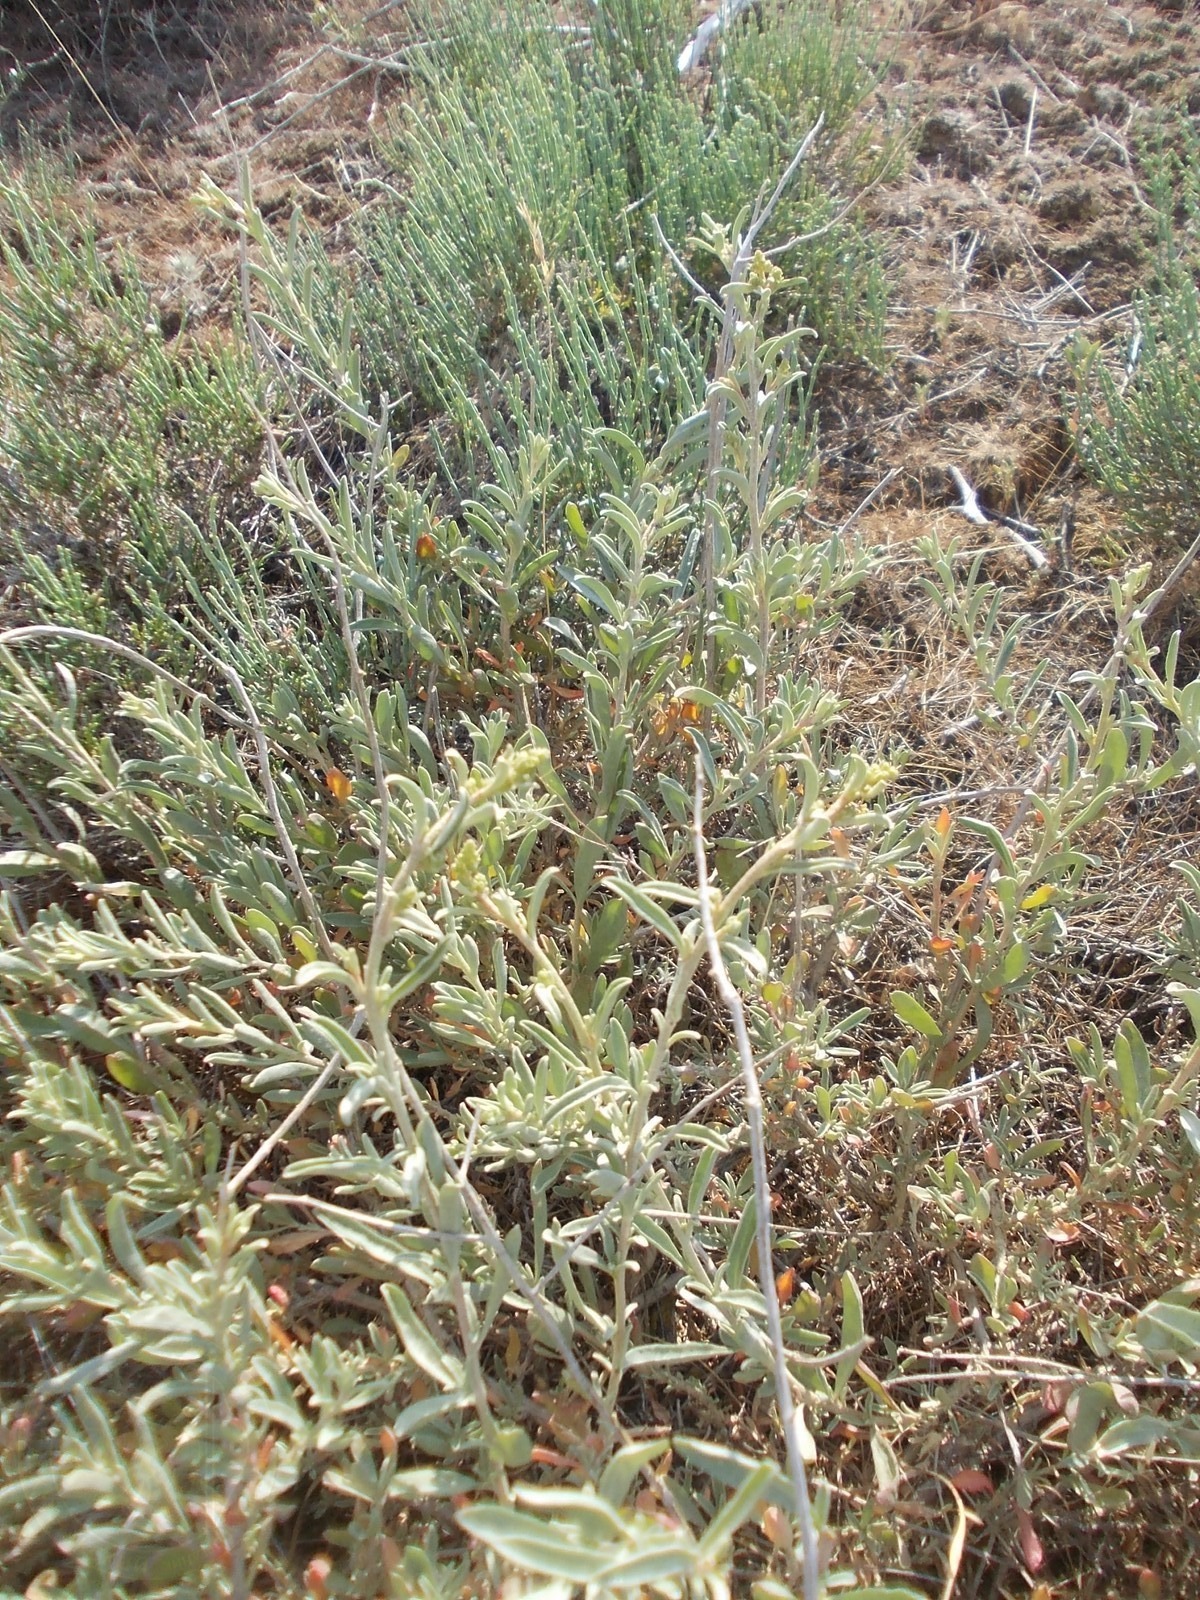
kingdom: Plantae
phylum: Tracheophyta
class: Magnoliopsida
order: Caryophyllales
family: Amaranthaceae
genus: Atriplex
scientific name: Atriplex cana
